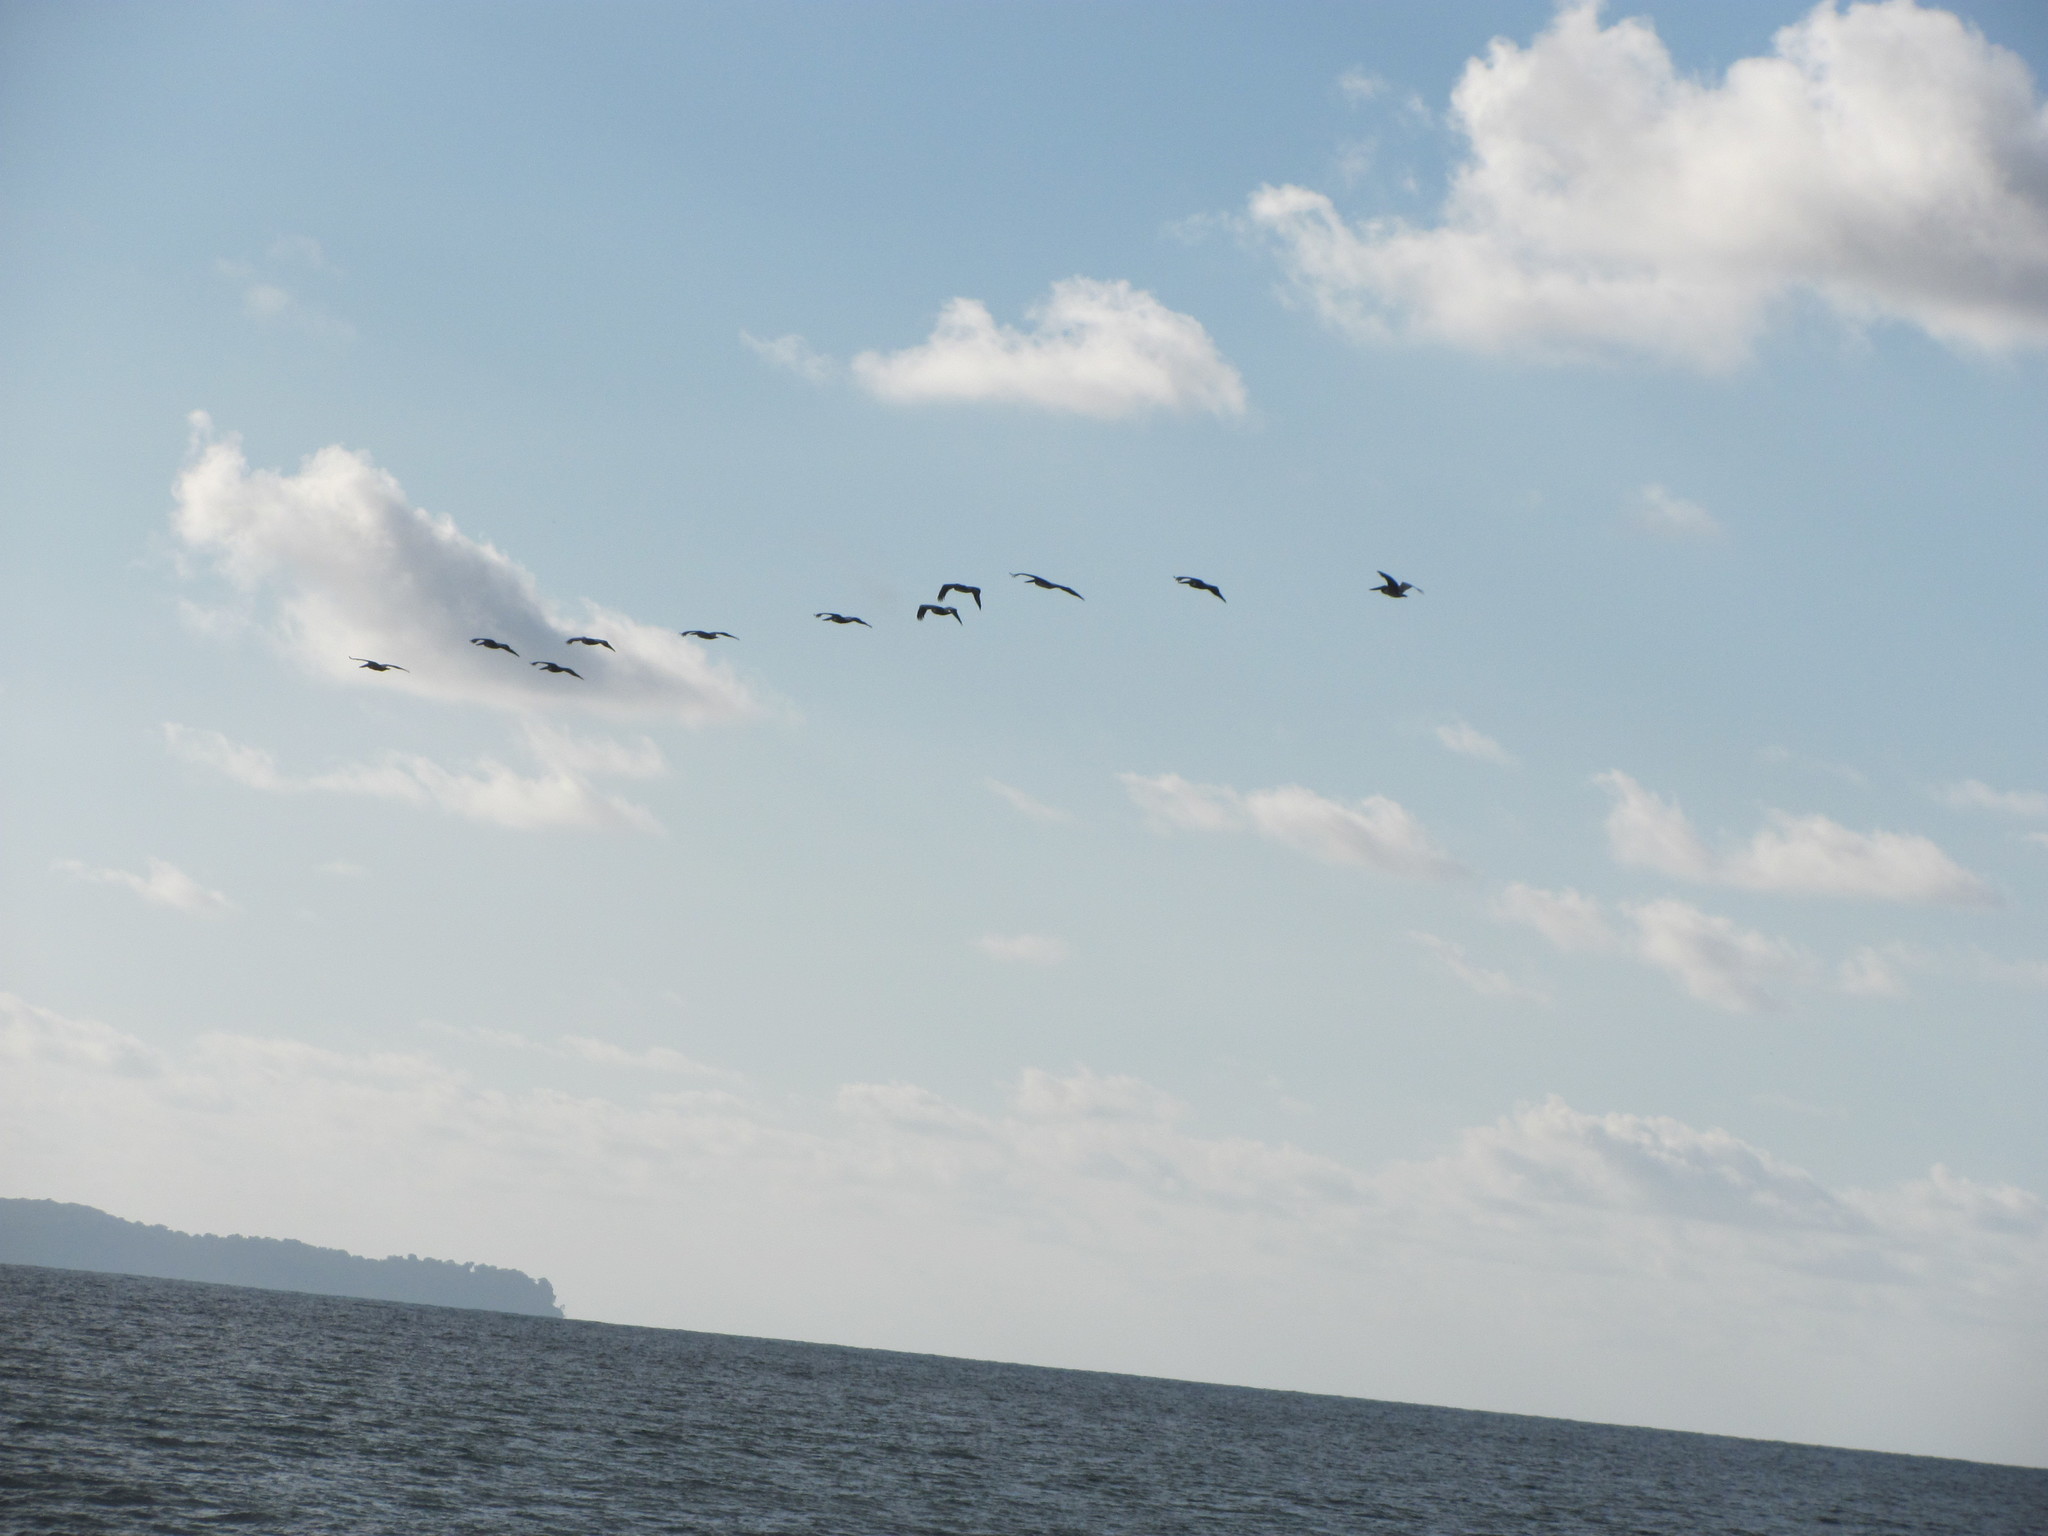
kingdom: Animalia
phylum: Chordata
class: Aves
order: Pelecaniformes
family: Pelecanidae
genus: Pelecanus
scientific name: Pelecanus occidentalis
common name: Brown pelican
